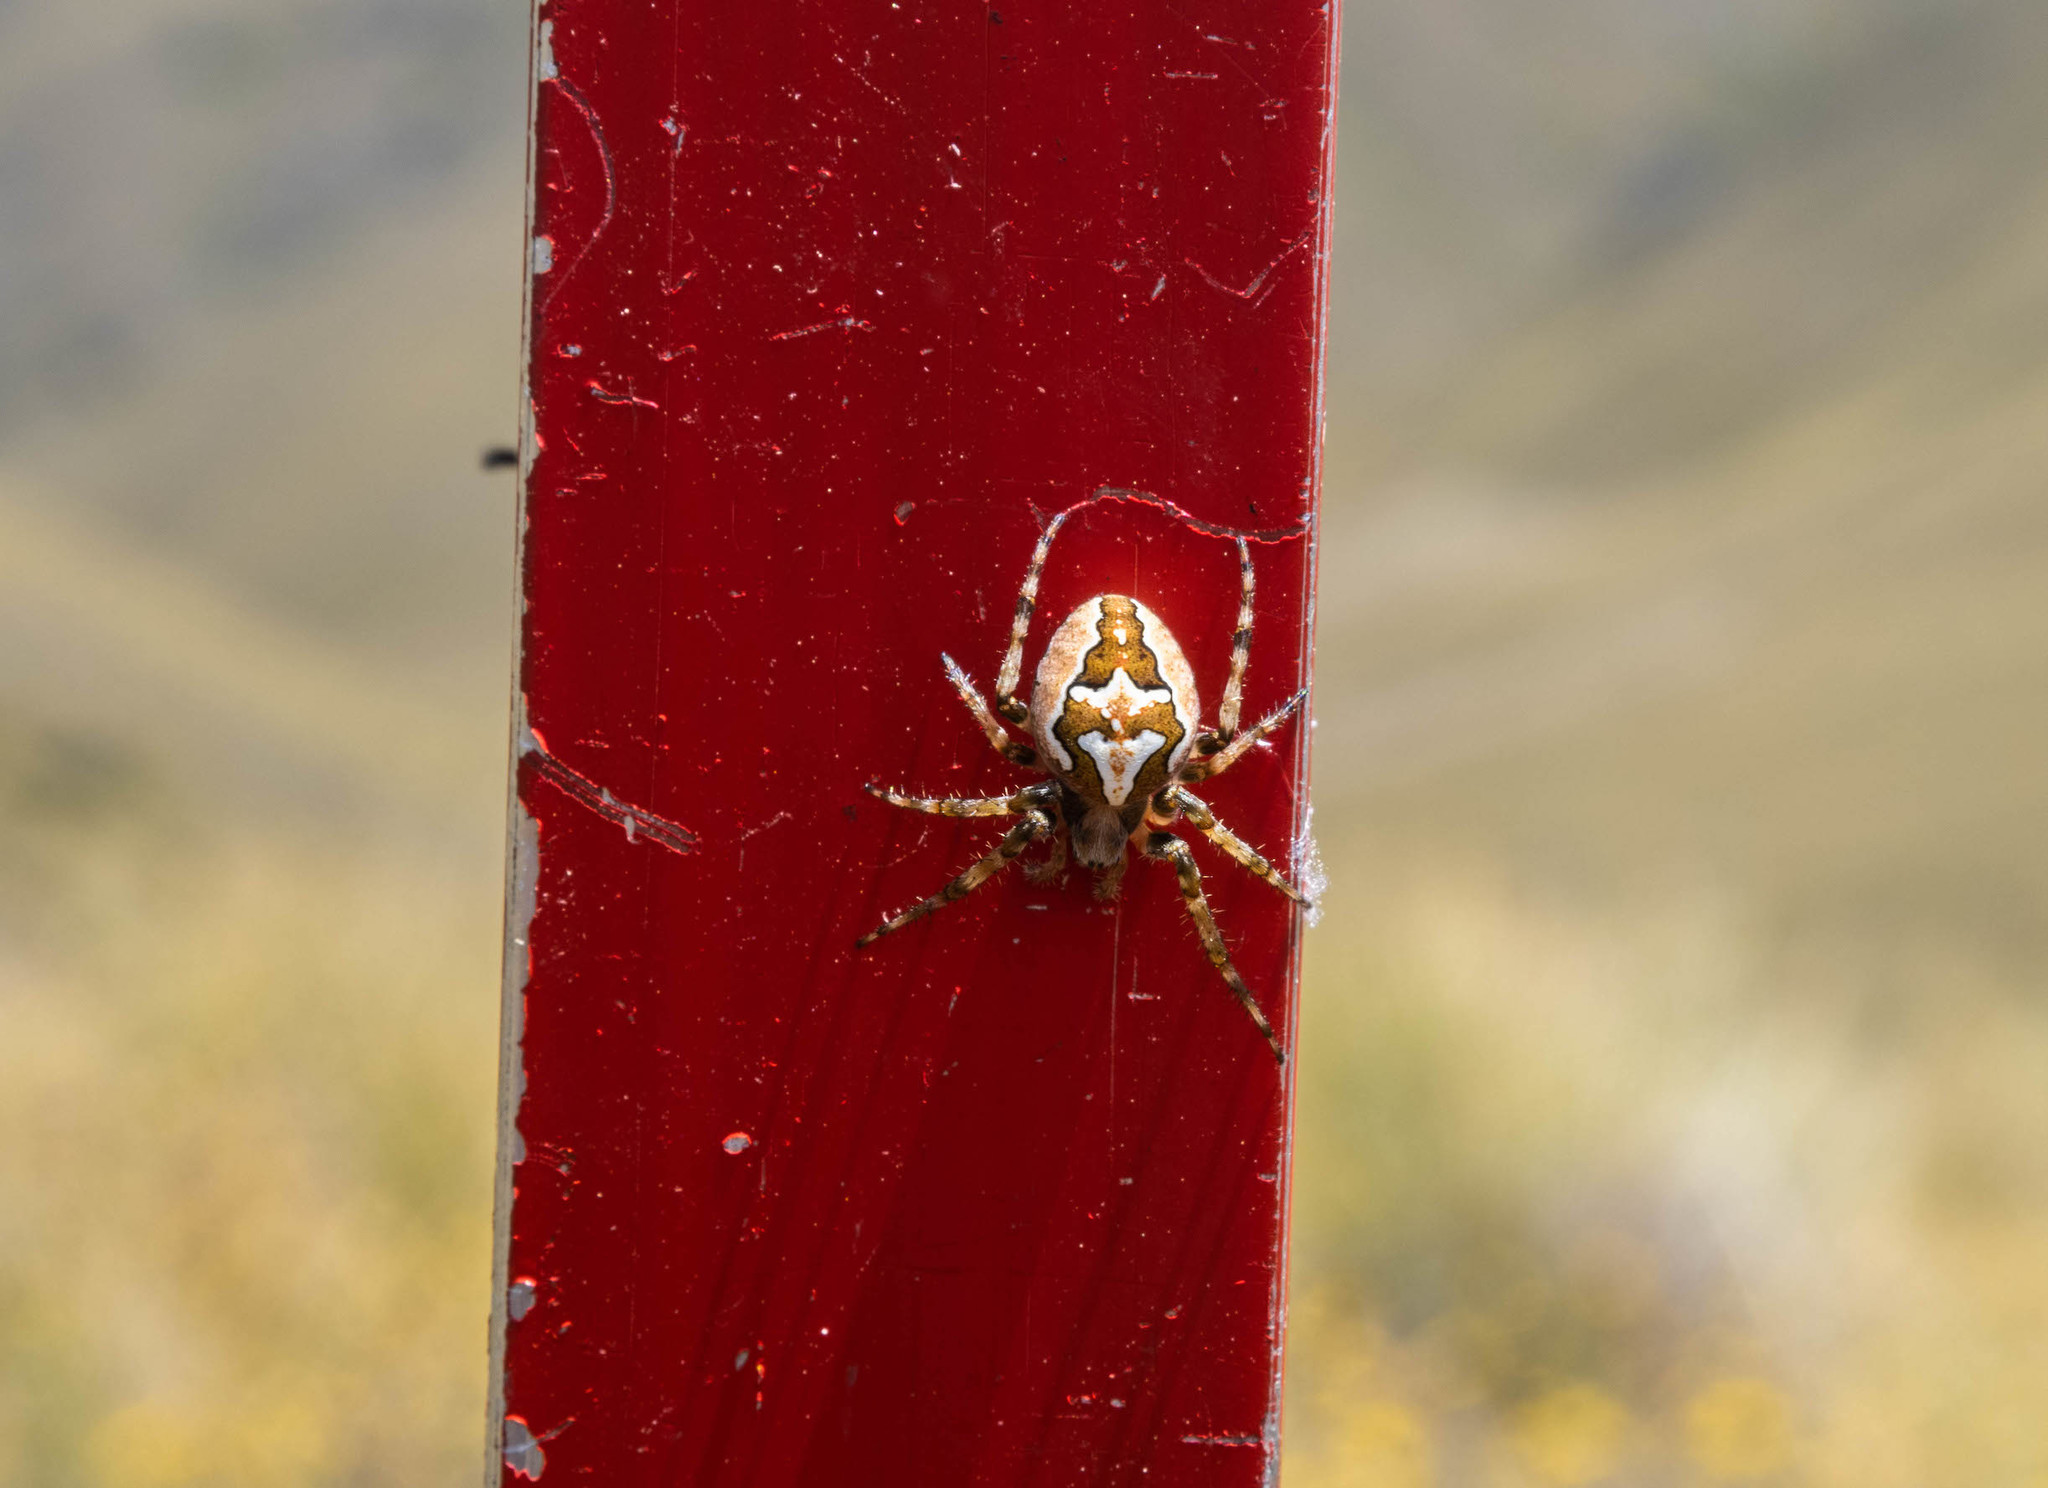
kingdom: Animalia
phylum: Arthropoda
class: Arachnida
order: Araneae
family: Araneidae
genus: Colaranea
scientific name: Colaranea verutum
